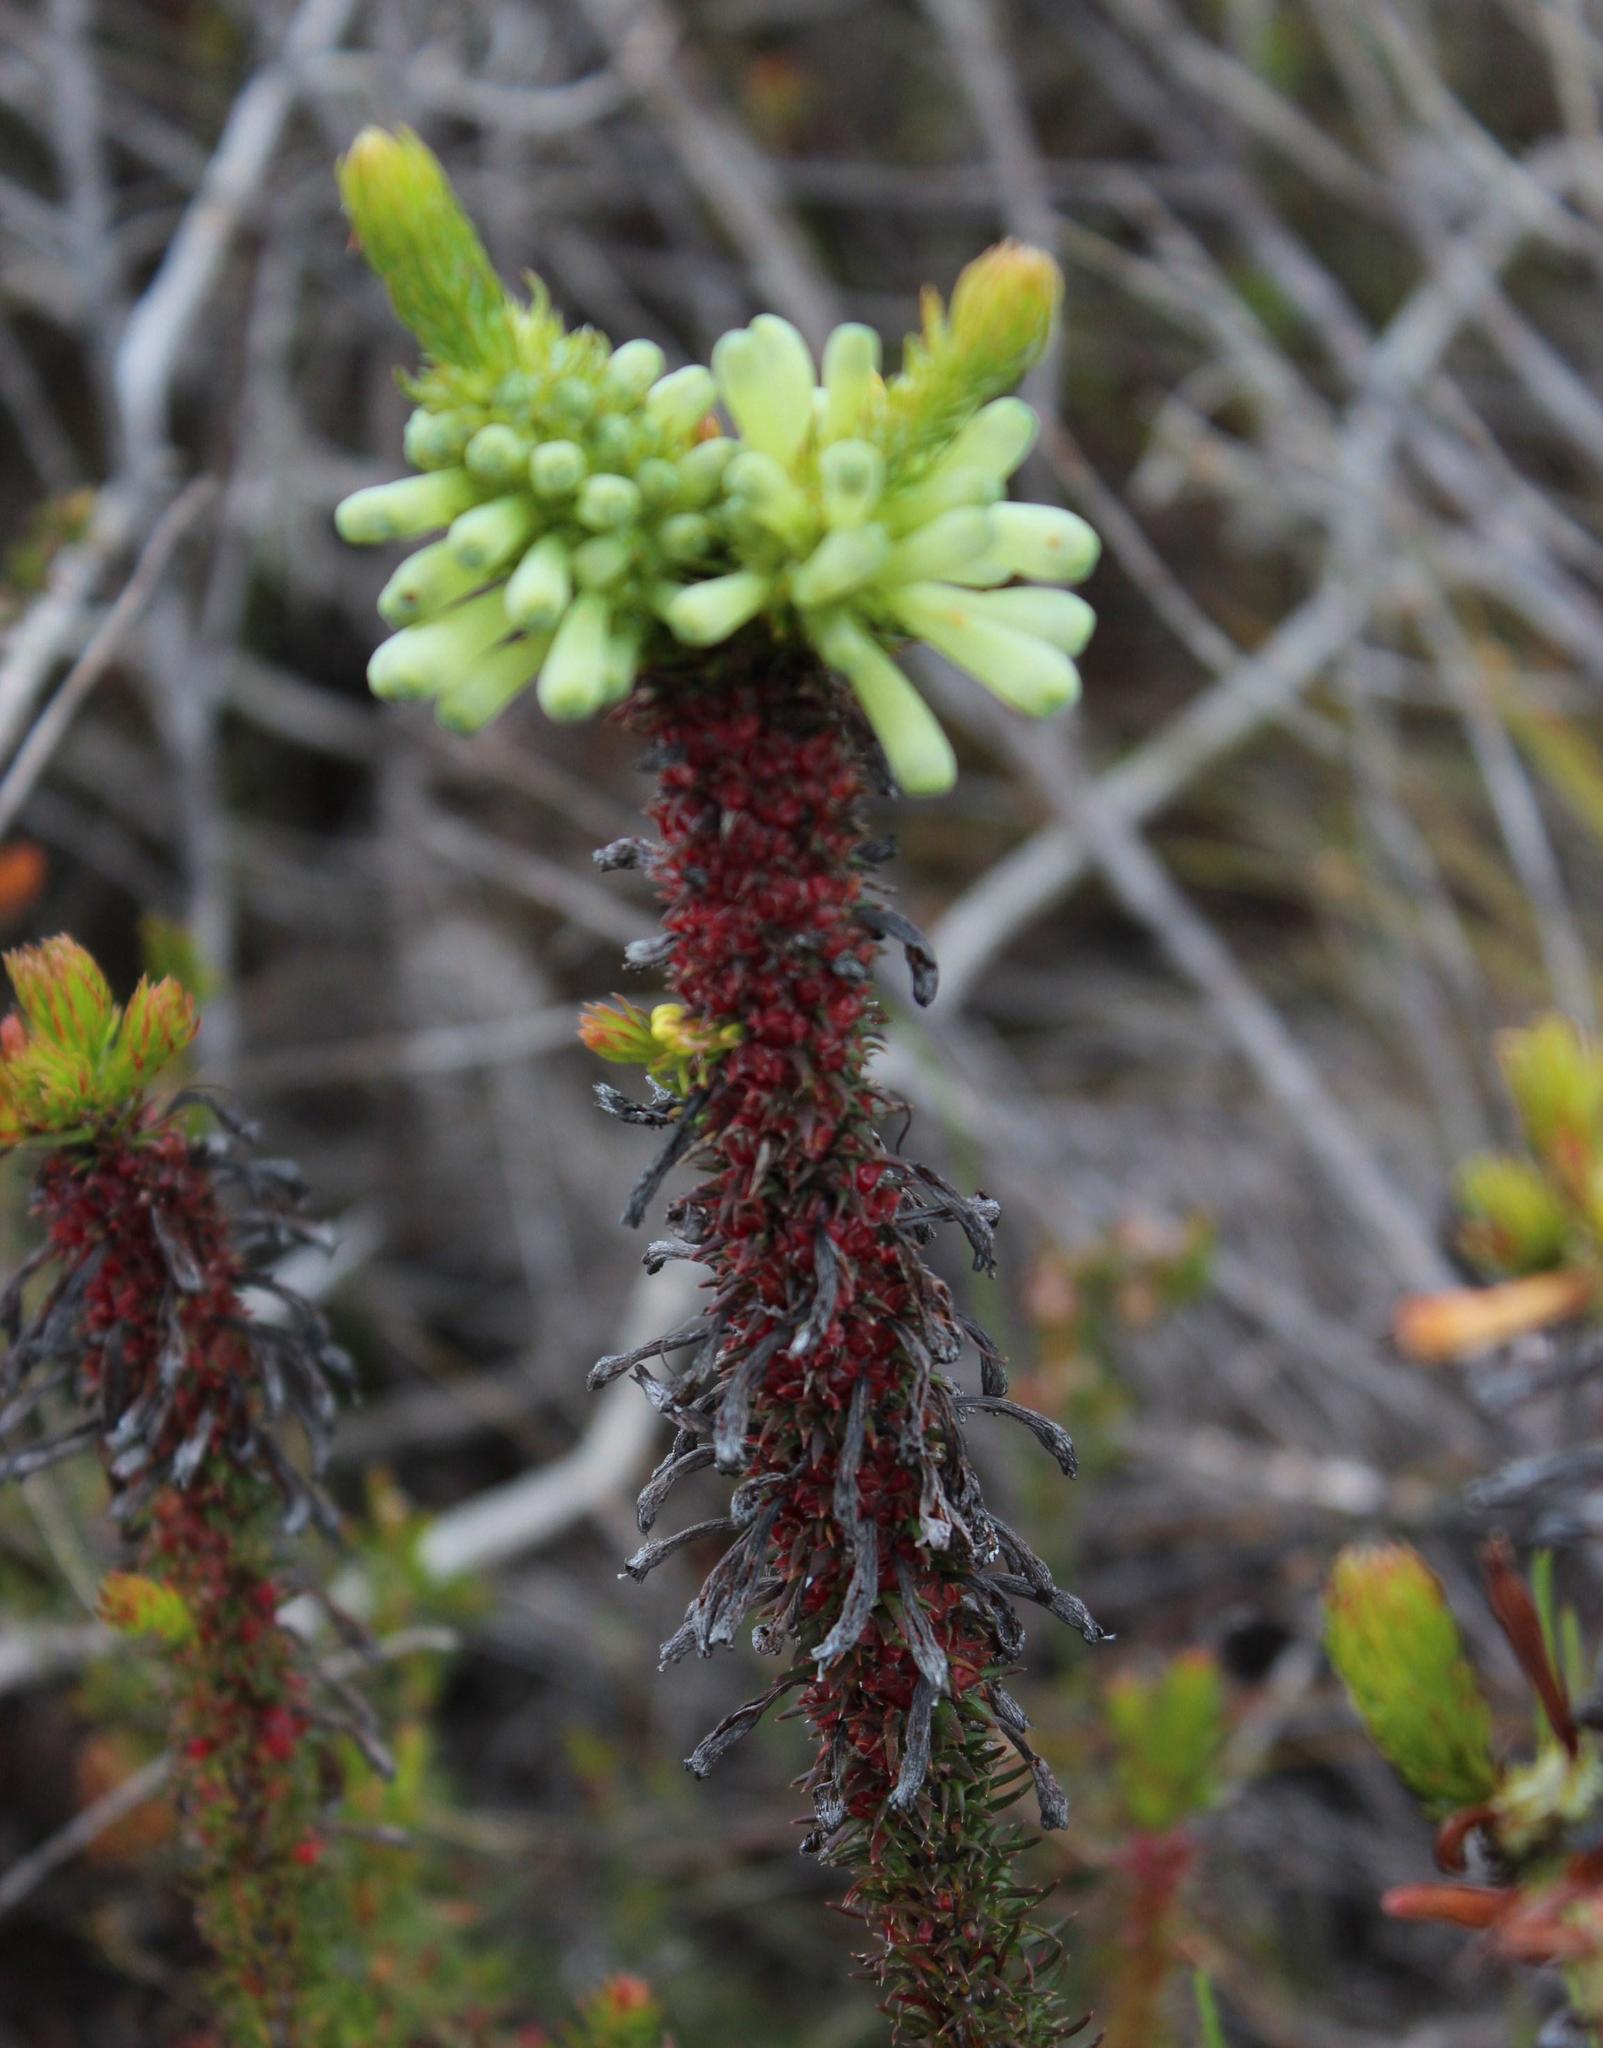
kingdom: Plantae
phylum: Tracheophyta
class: Magnoliopsida
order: Ericales
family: Ericaceae
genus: Erica
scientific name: Erica sessiliflora
